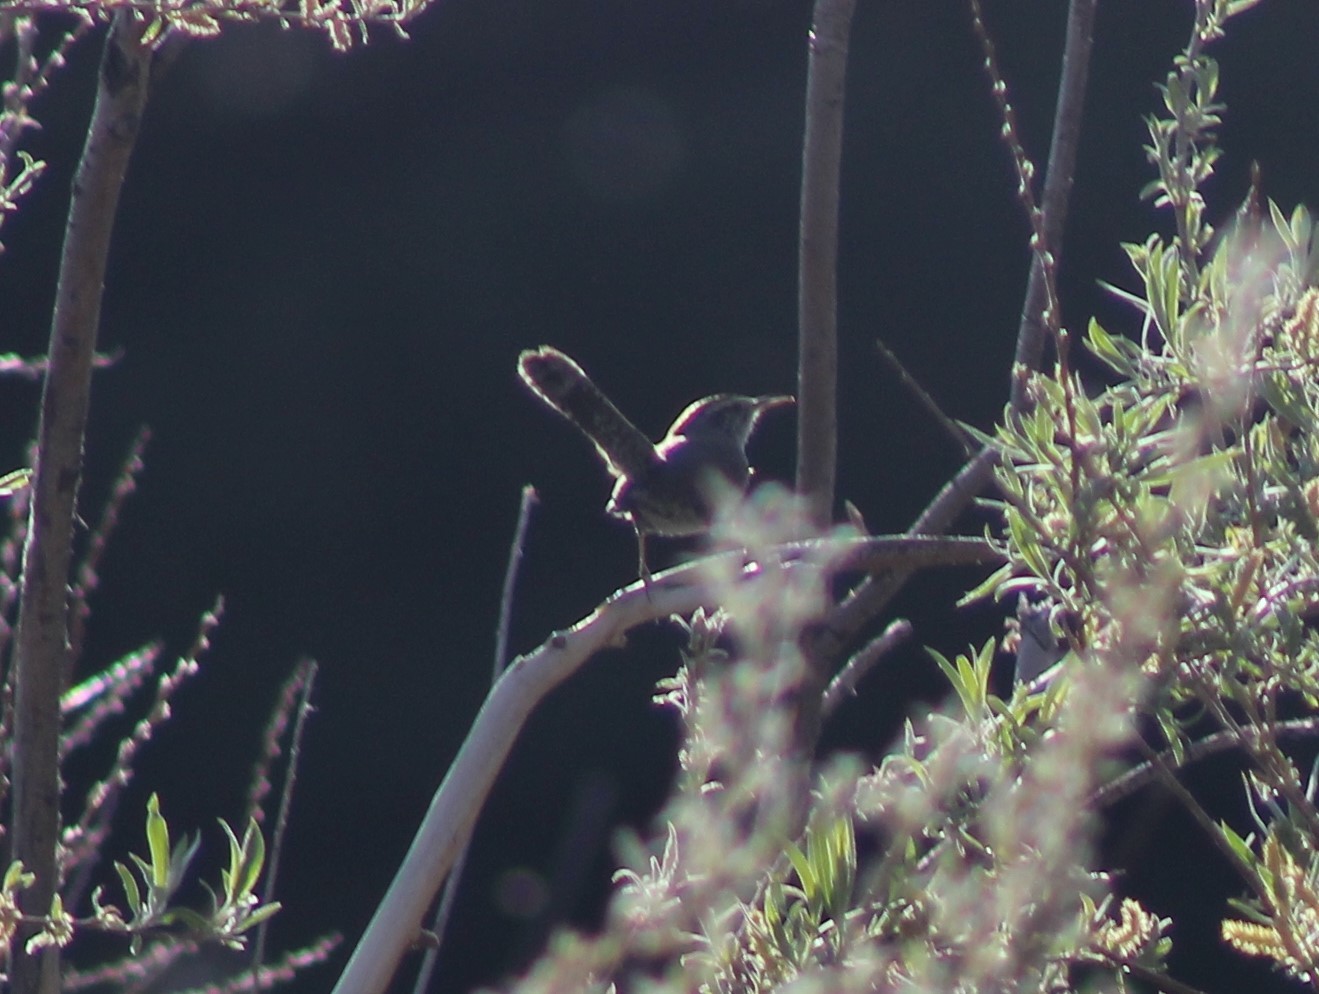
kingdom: Animalia
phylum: Chordata
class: Aves
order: Passeriformes
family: Troglodytidae
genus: Thryomanes
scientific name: Thryomanes bewickii
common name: Bewick's wren
